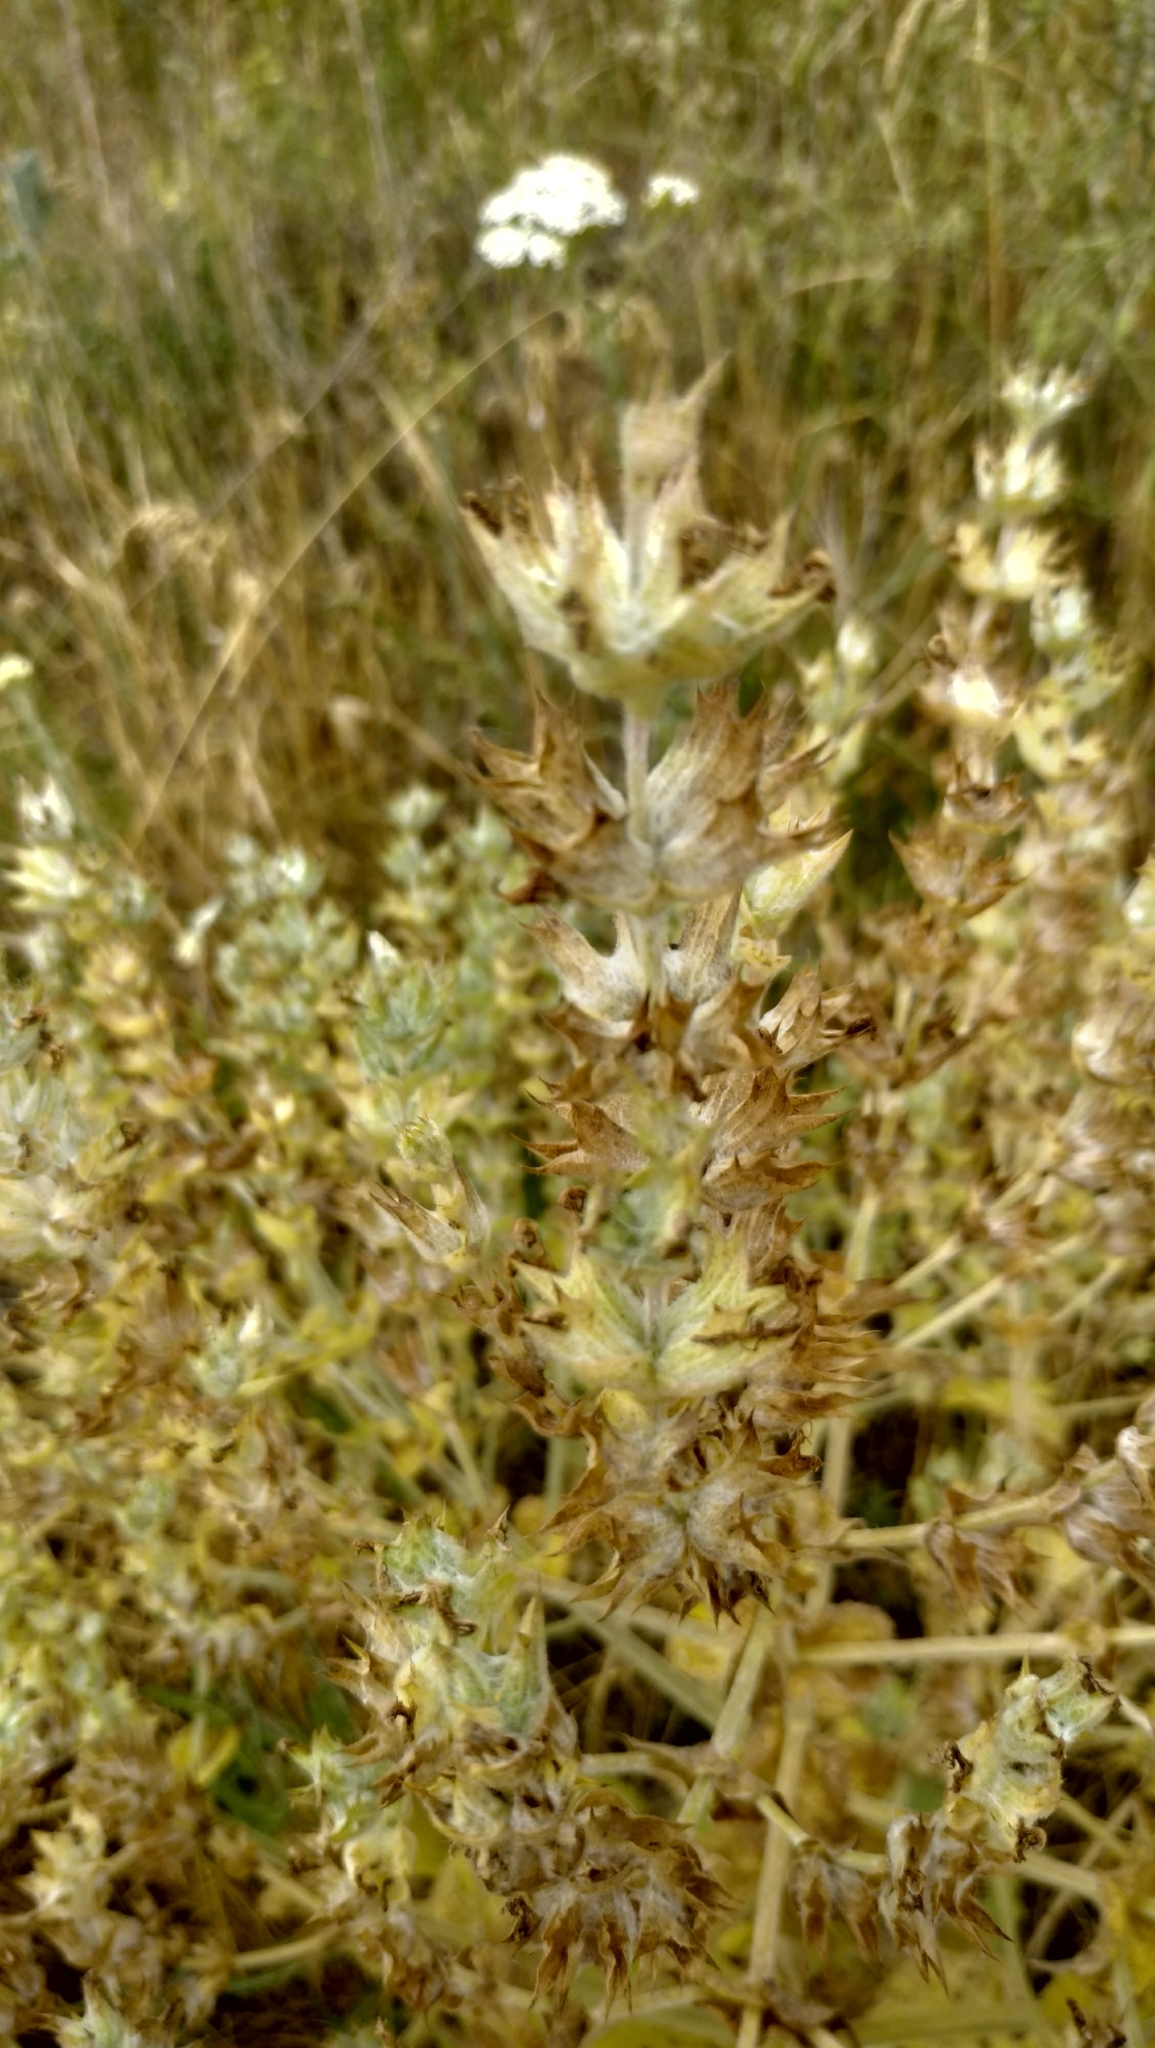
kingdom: Plantae
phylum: Tracheophyta
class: Magnoliopsida
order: Lamiales
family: Lamiaceae
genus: Salvia
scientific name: Salvia aethiopis
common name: Mediterranean sage
